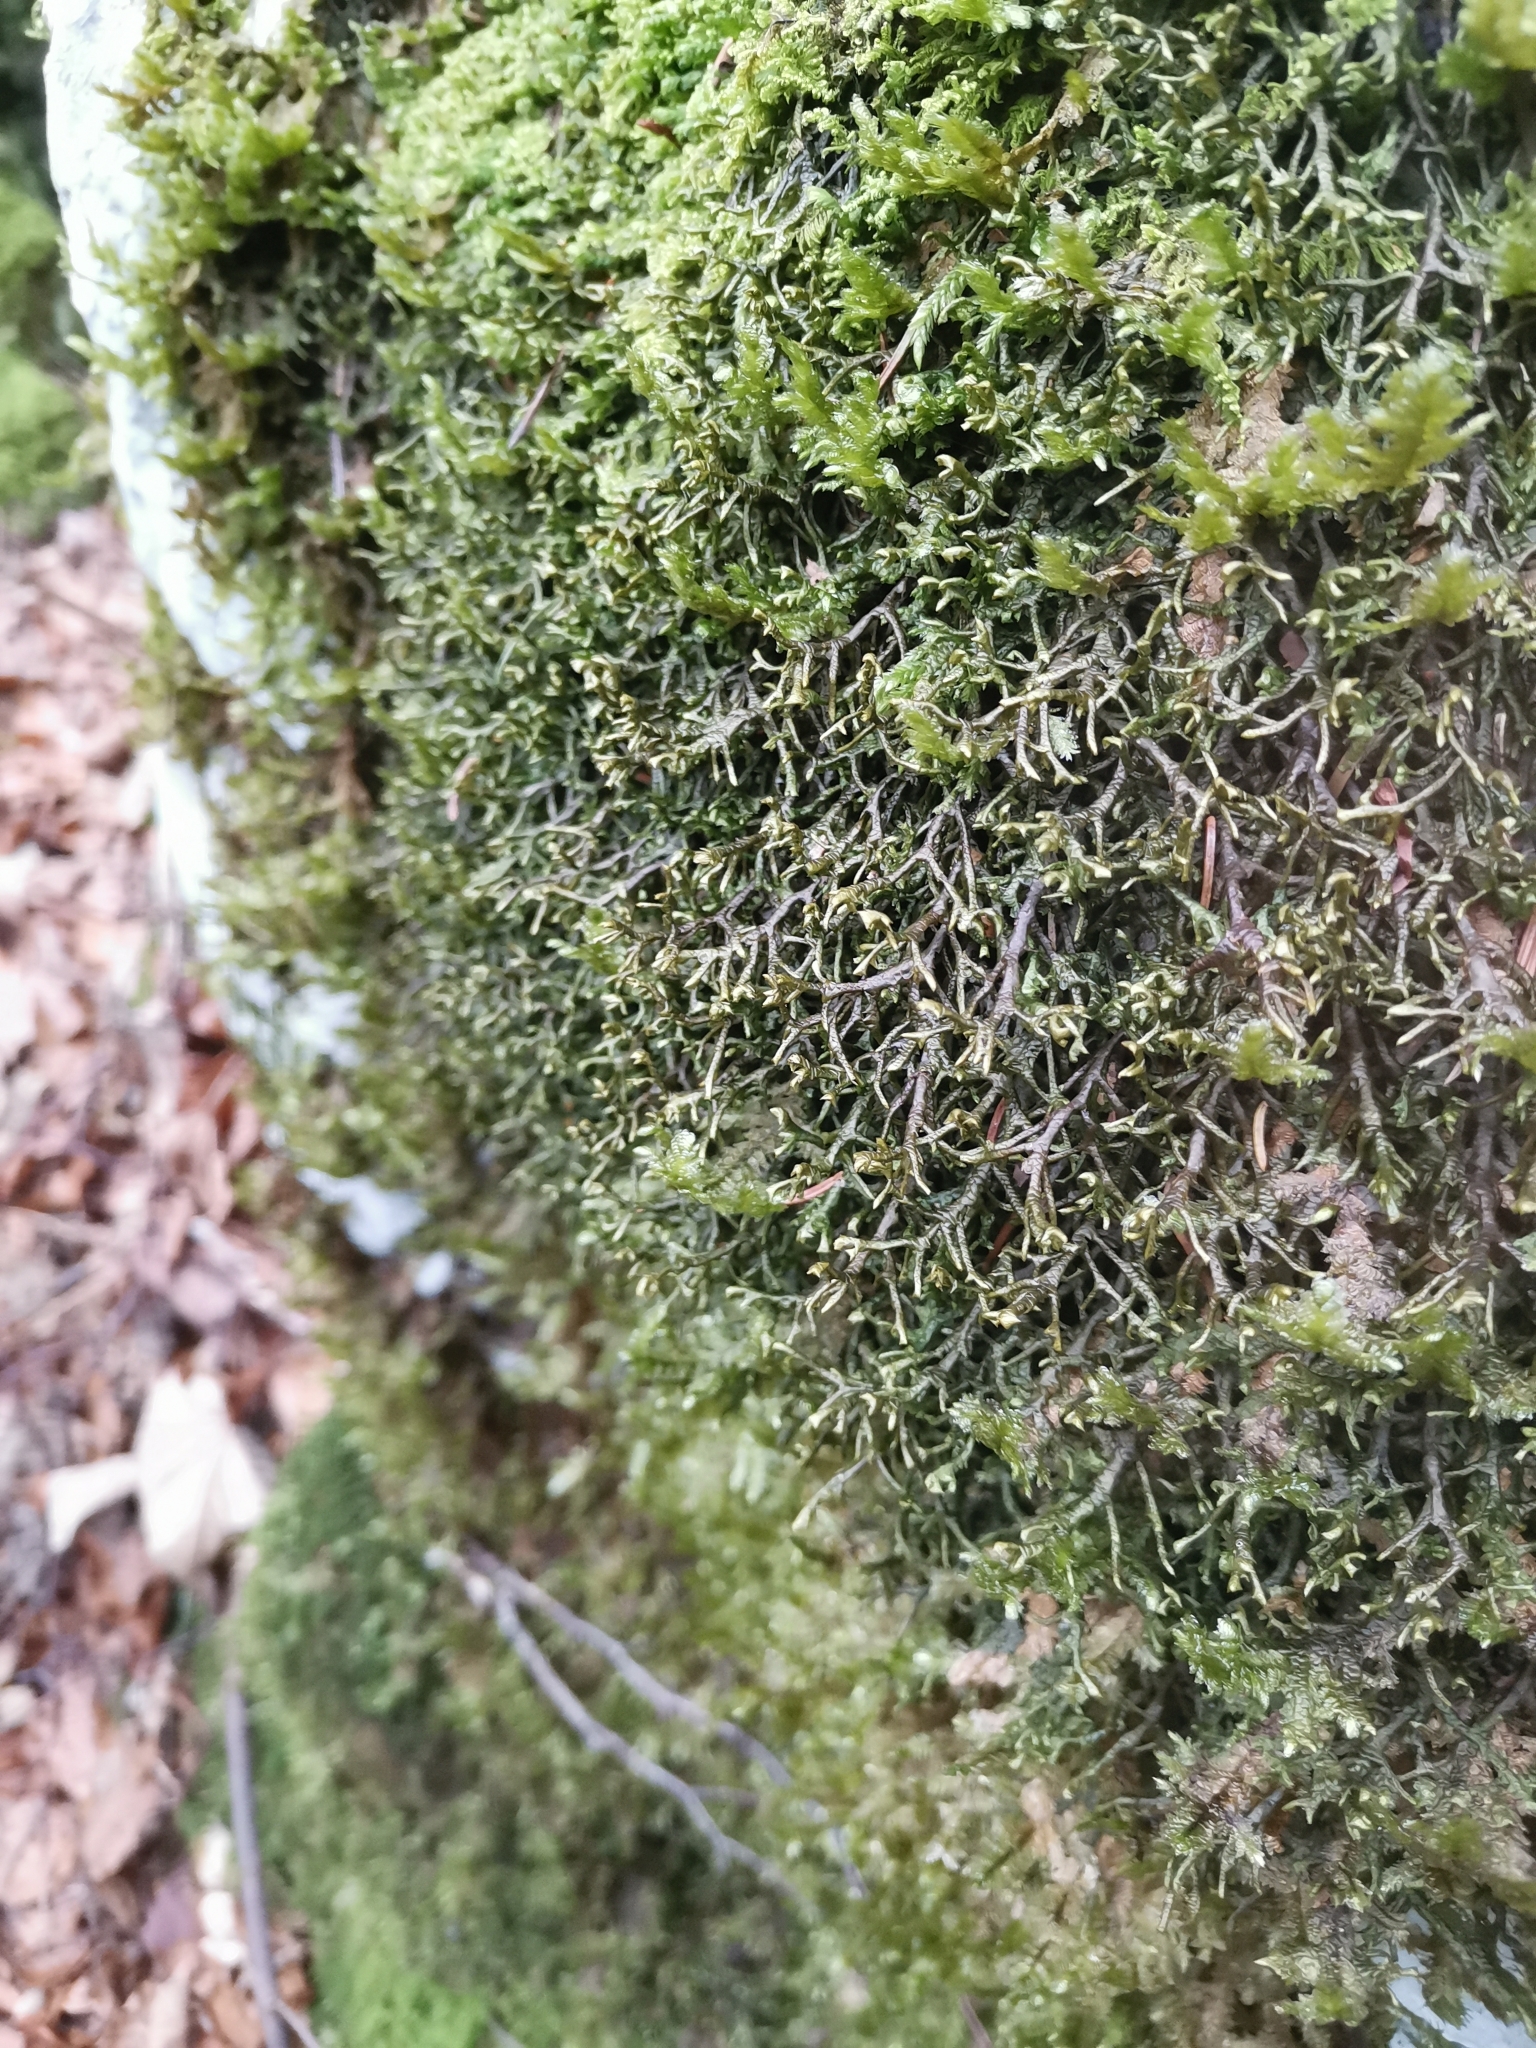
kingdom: Plantae
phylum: Marchantiophyta
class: Jungermanniopsida
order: Porellales
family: Porellaceae
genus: Porella
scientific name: Porella arboris-vitae
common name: Bitter scalewort
